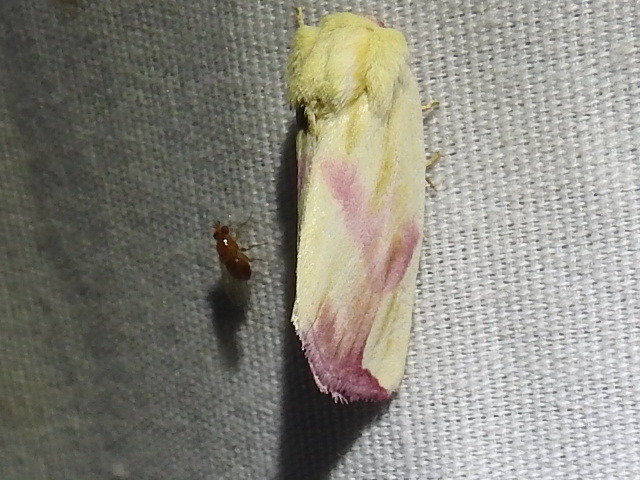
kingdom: Animalia
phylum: Arthropoda
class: Insecta
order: Lepidoptera
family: Noctuidae
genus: Thurberiphaga
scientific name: Thurberiphaga diffusa
